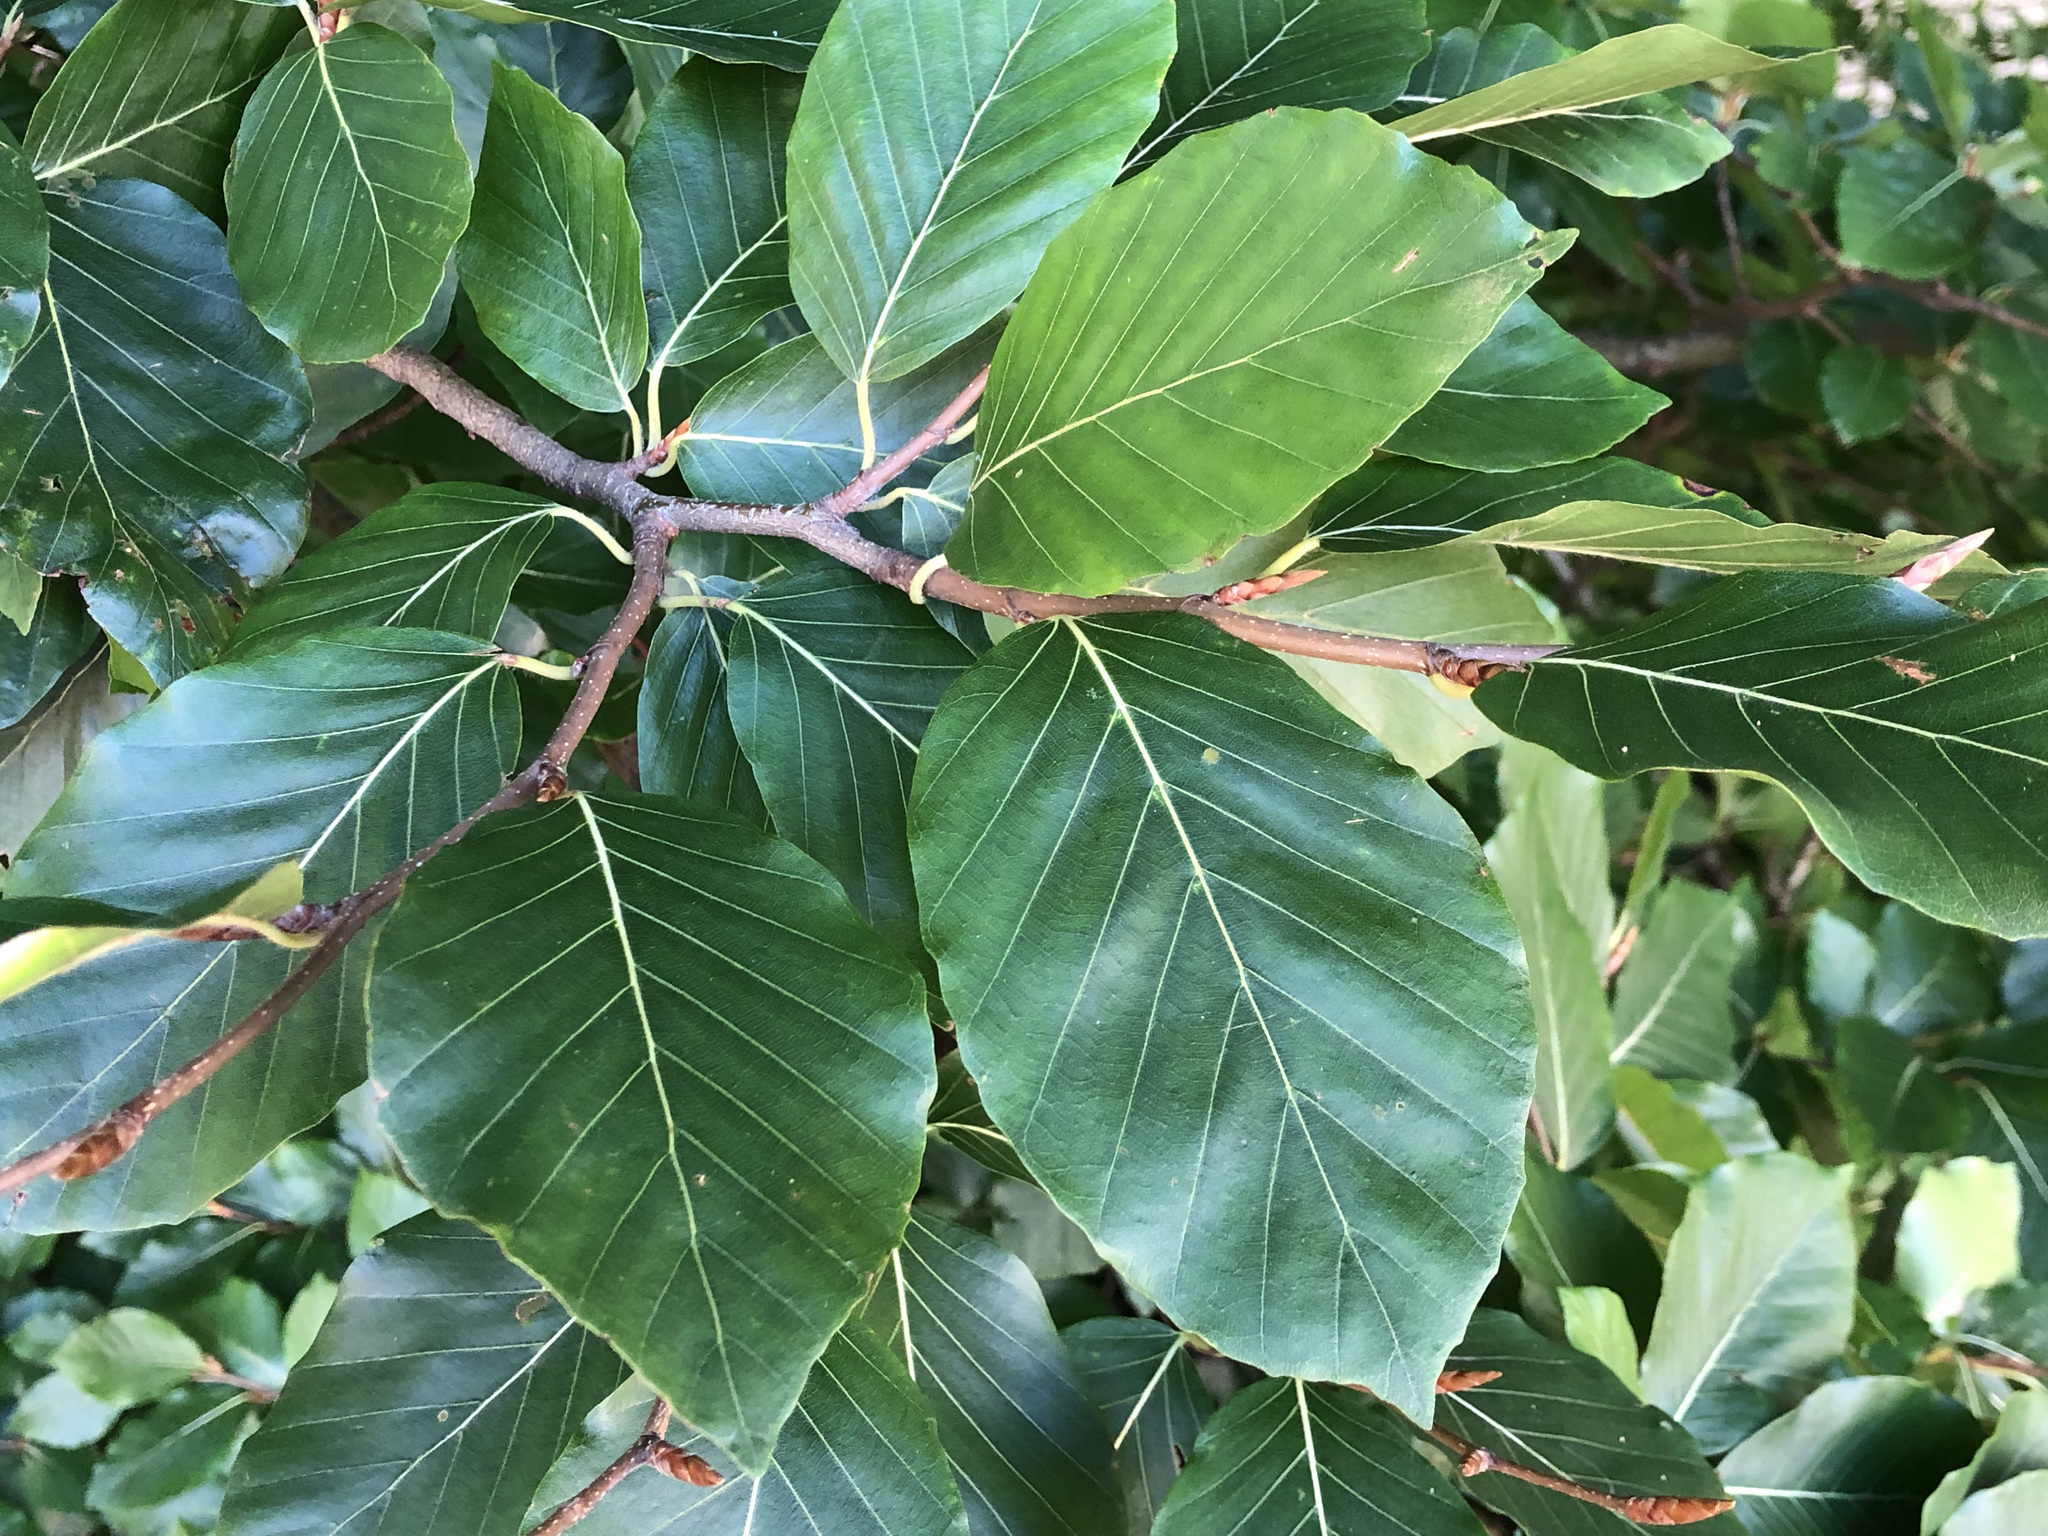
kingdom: Plantae
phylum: Tracheophyta
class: Magnoliopsida
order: Fagales
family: Fagaceae
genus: Fagus
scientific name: Fagus sylvatica
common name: Beech
